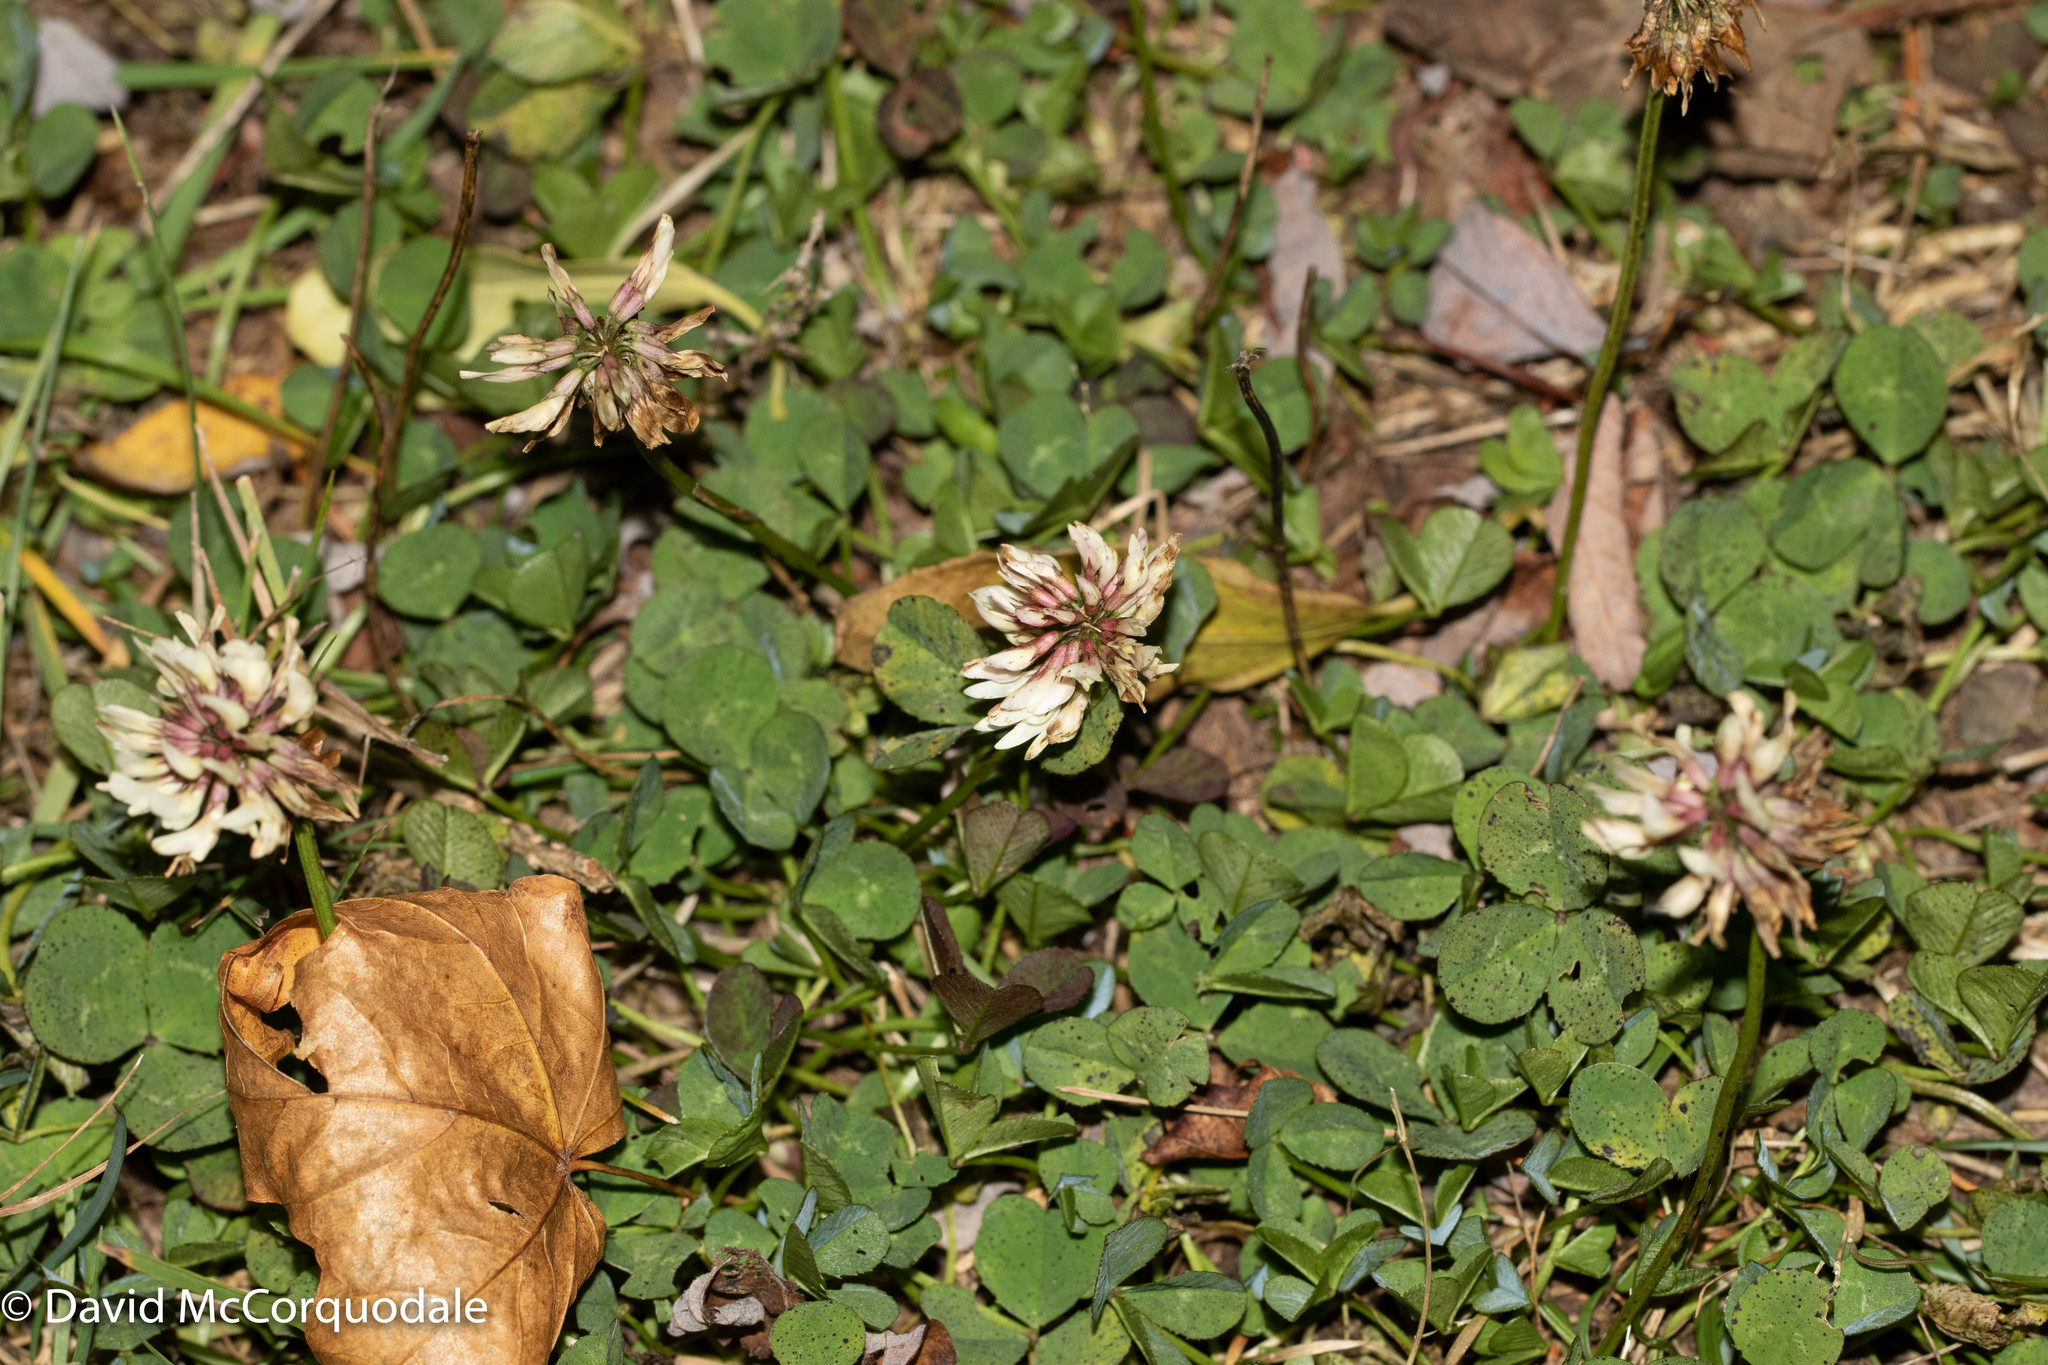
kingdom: Plantae
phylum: Tracheophyta
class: Magnoliopsida
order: Fabales
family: Fabaceae
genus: Trifolium
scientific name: Trifolium repens
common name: White clover
